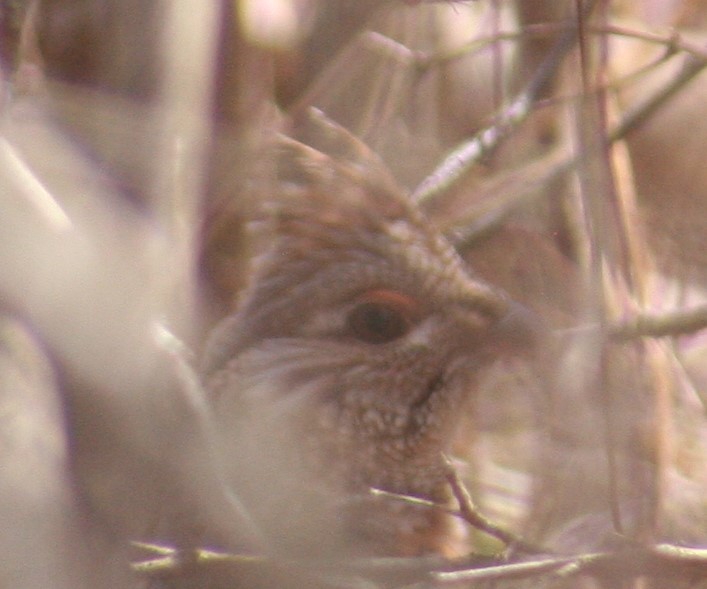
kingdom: Animalia
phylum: Chordata
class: Aves
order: Galliformes
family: Phasianidae
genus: Bonasa
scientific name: Bonasa umbellus
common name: Ruffed grouse
